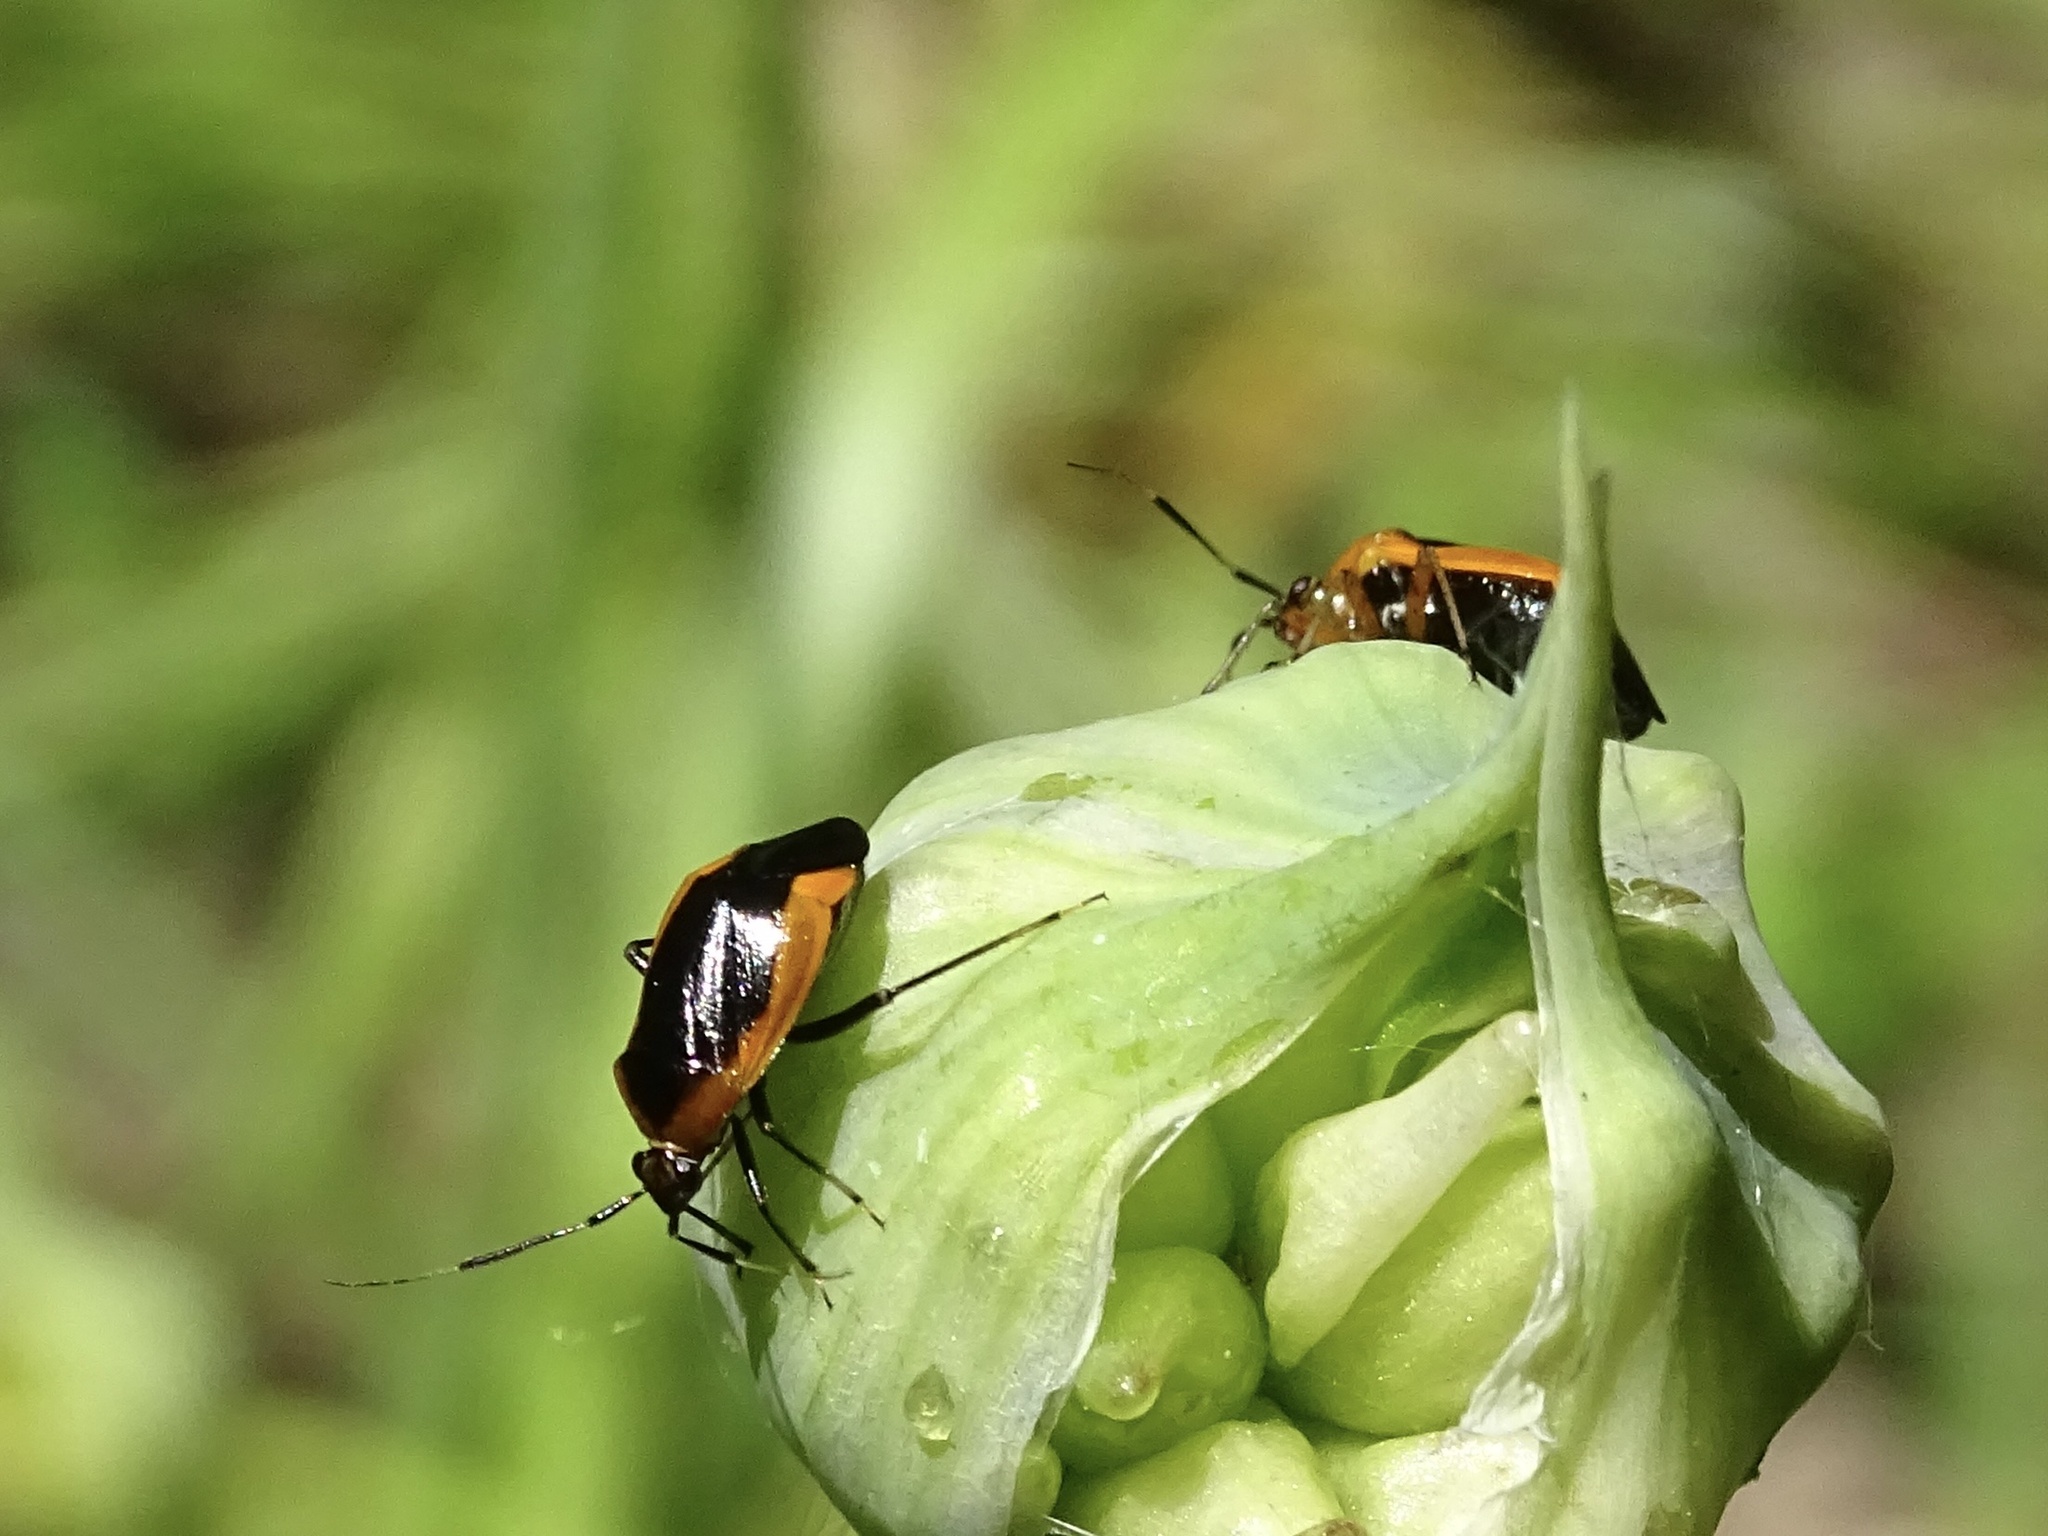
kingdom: Animalia
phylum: Arthropoda
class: Insecta
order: Hemiptera
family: Miridae
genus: Metriorrhynchomiris
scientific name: Metriorrhynchomiris dislocatus
